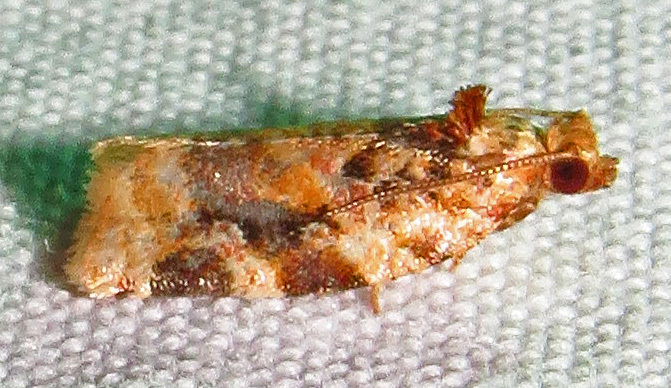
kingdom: Animalia
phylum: Arthropoda
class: Insecta
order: Lepidoptera
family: Tortricidae
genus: Argyrotaenia
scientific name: Argyrotaenia velutinana
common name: Red-banded leafroller moth
